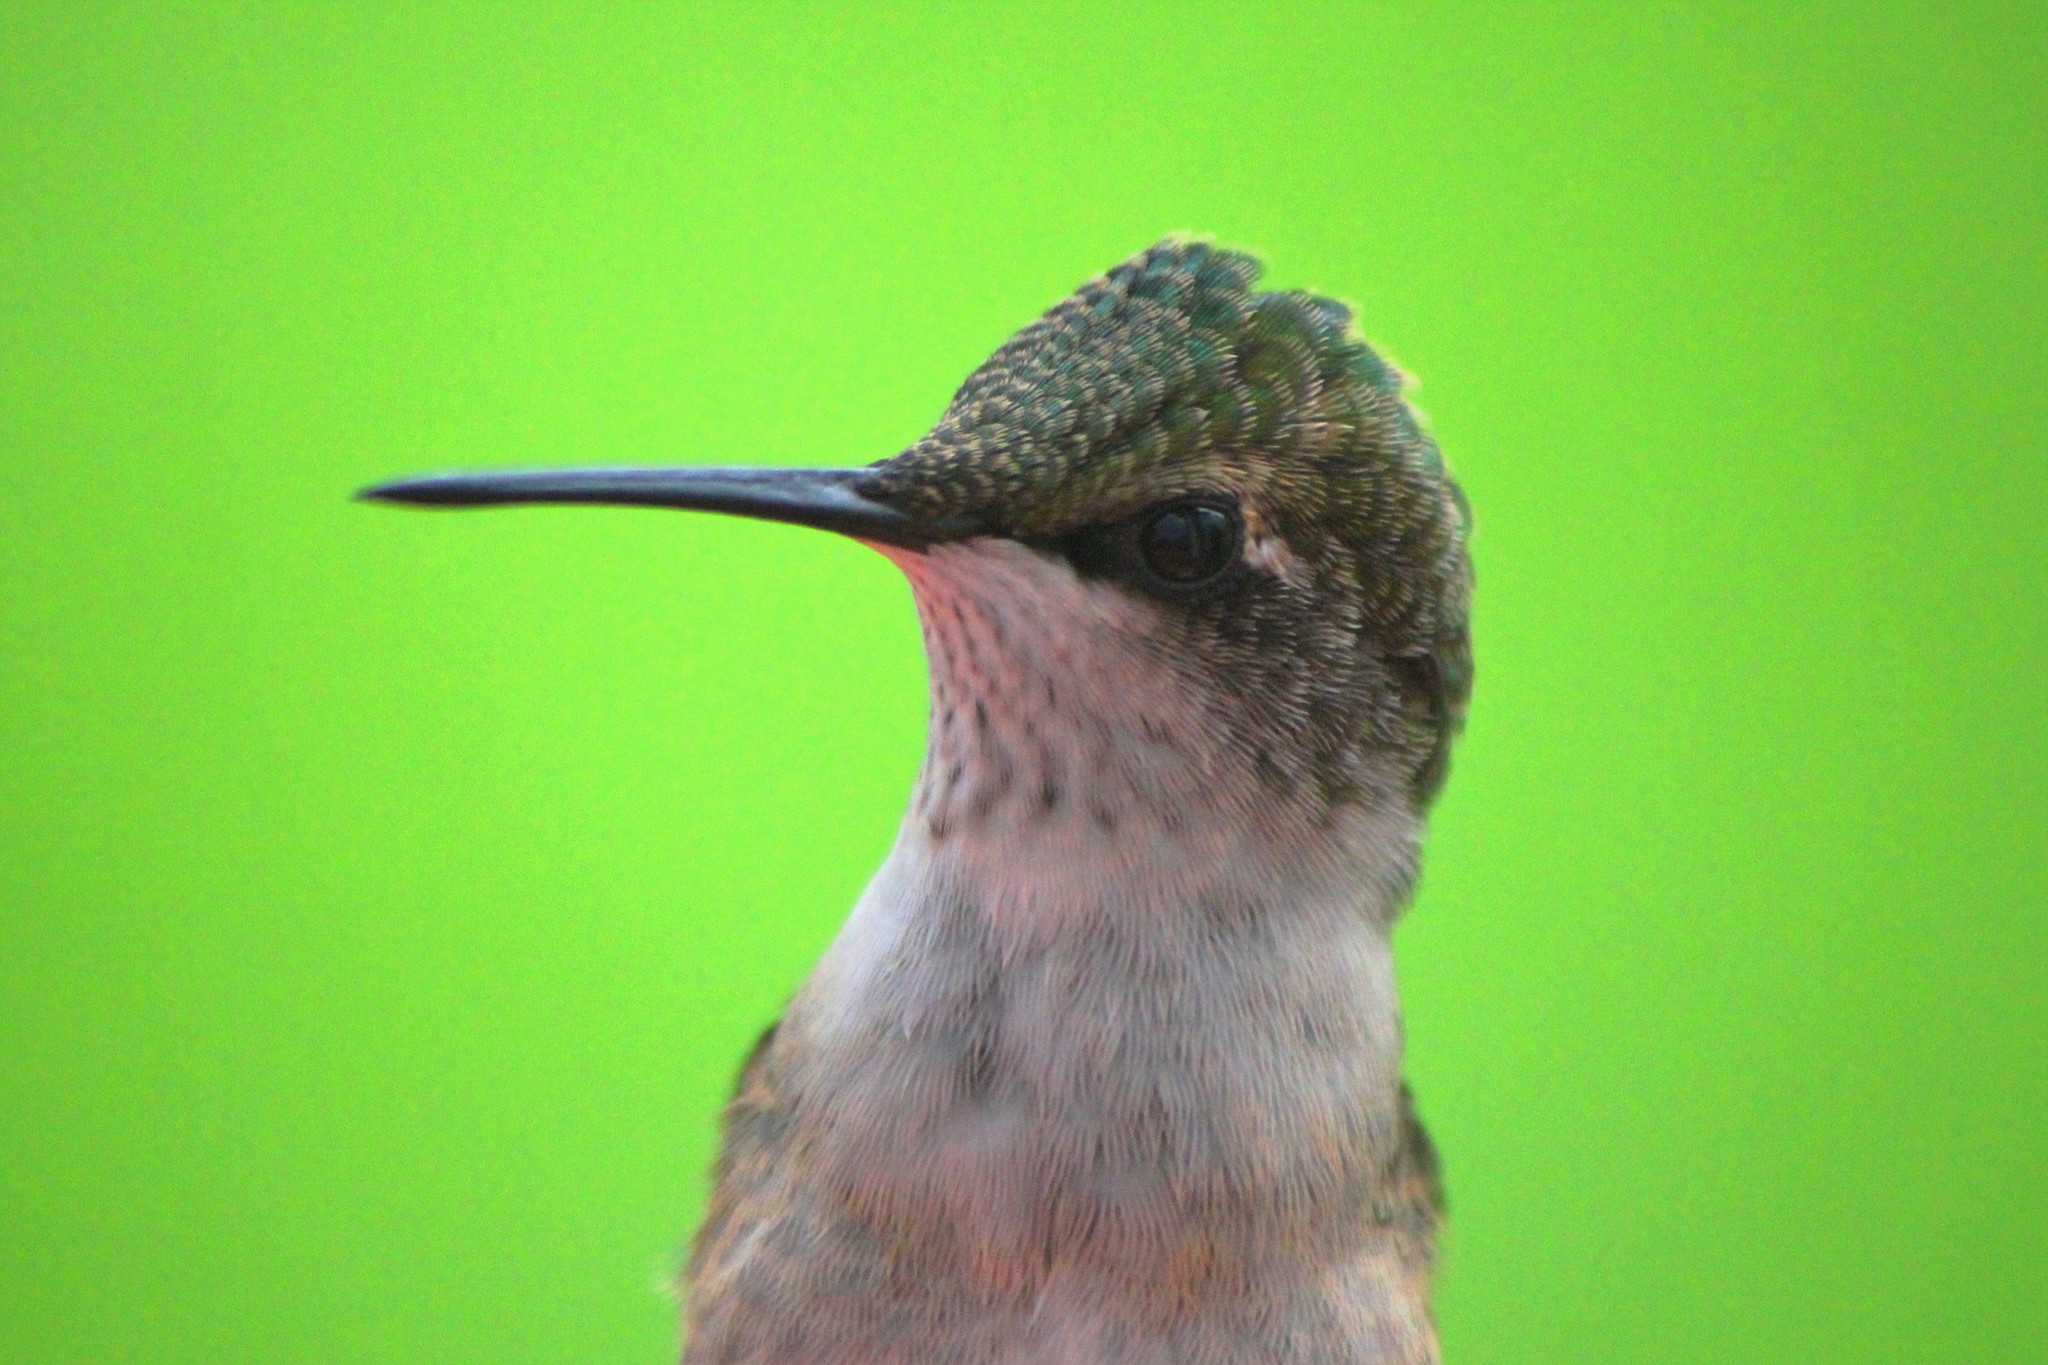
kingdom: Animalia
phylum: Chordata
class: Aves
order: Apodiformes
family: Trochilidae
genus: Archilochus
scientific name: Archilochus colubris
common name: Ruby-throated hummingbird
